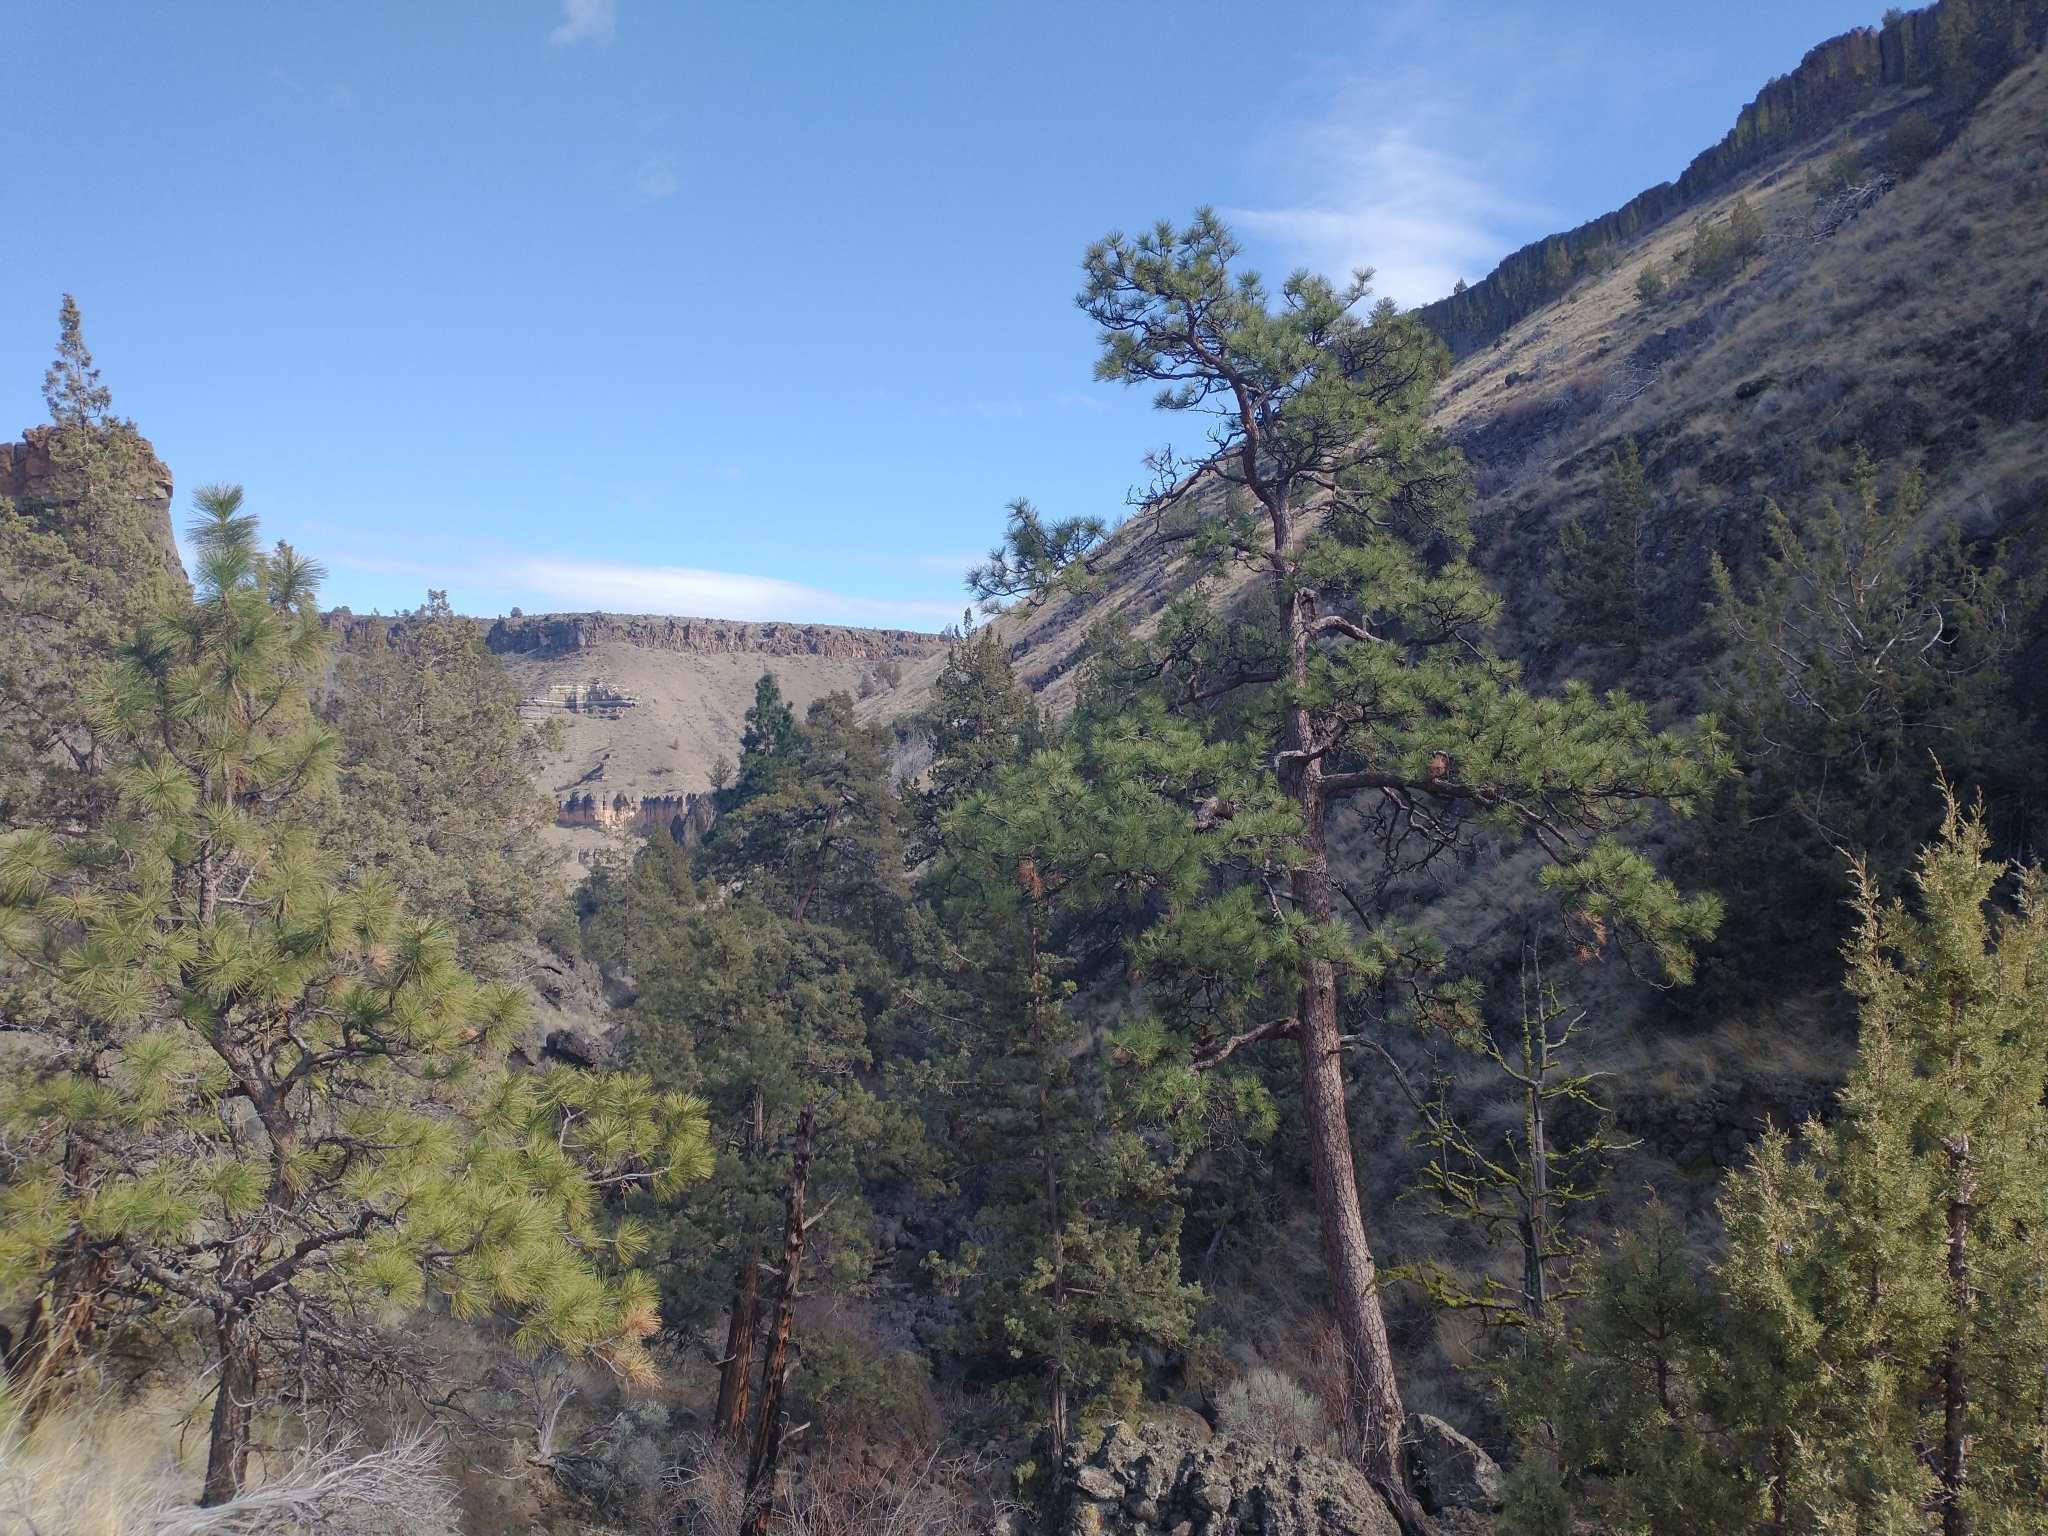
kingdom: Plantae
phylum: Tracheophyta
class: Pinopsida
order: Pinales
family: Pinaceae
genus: Pinus
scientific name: Pinus ponderosa
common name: Western yellow-pine
